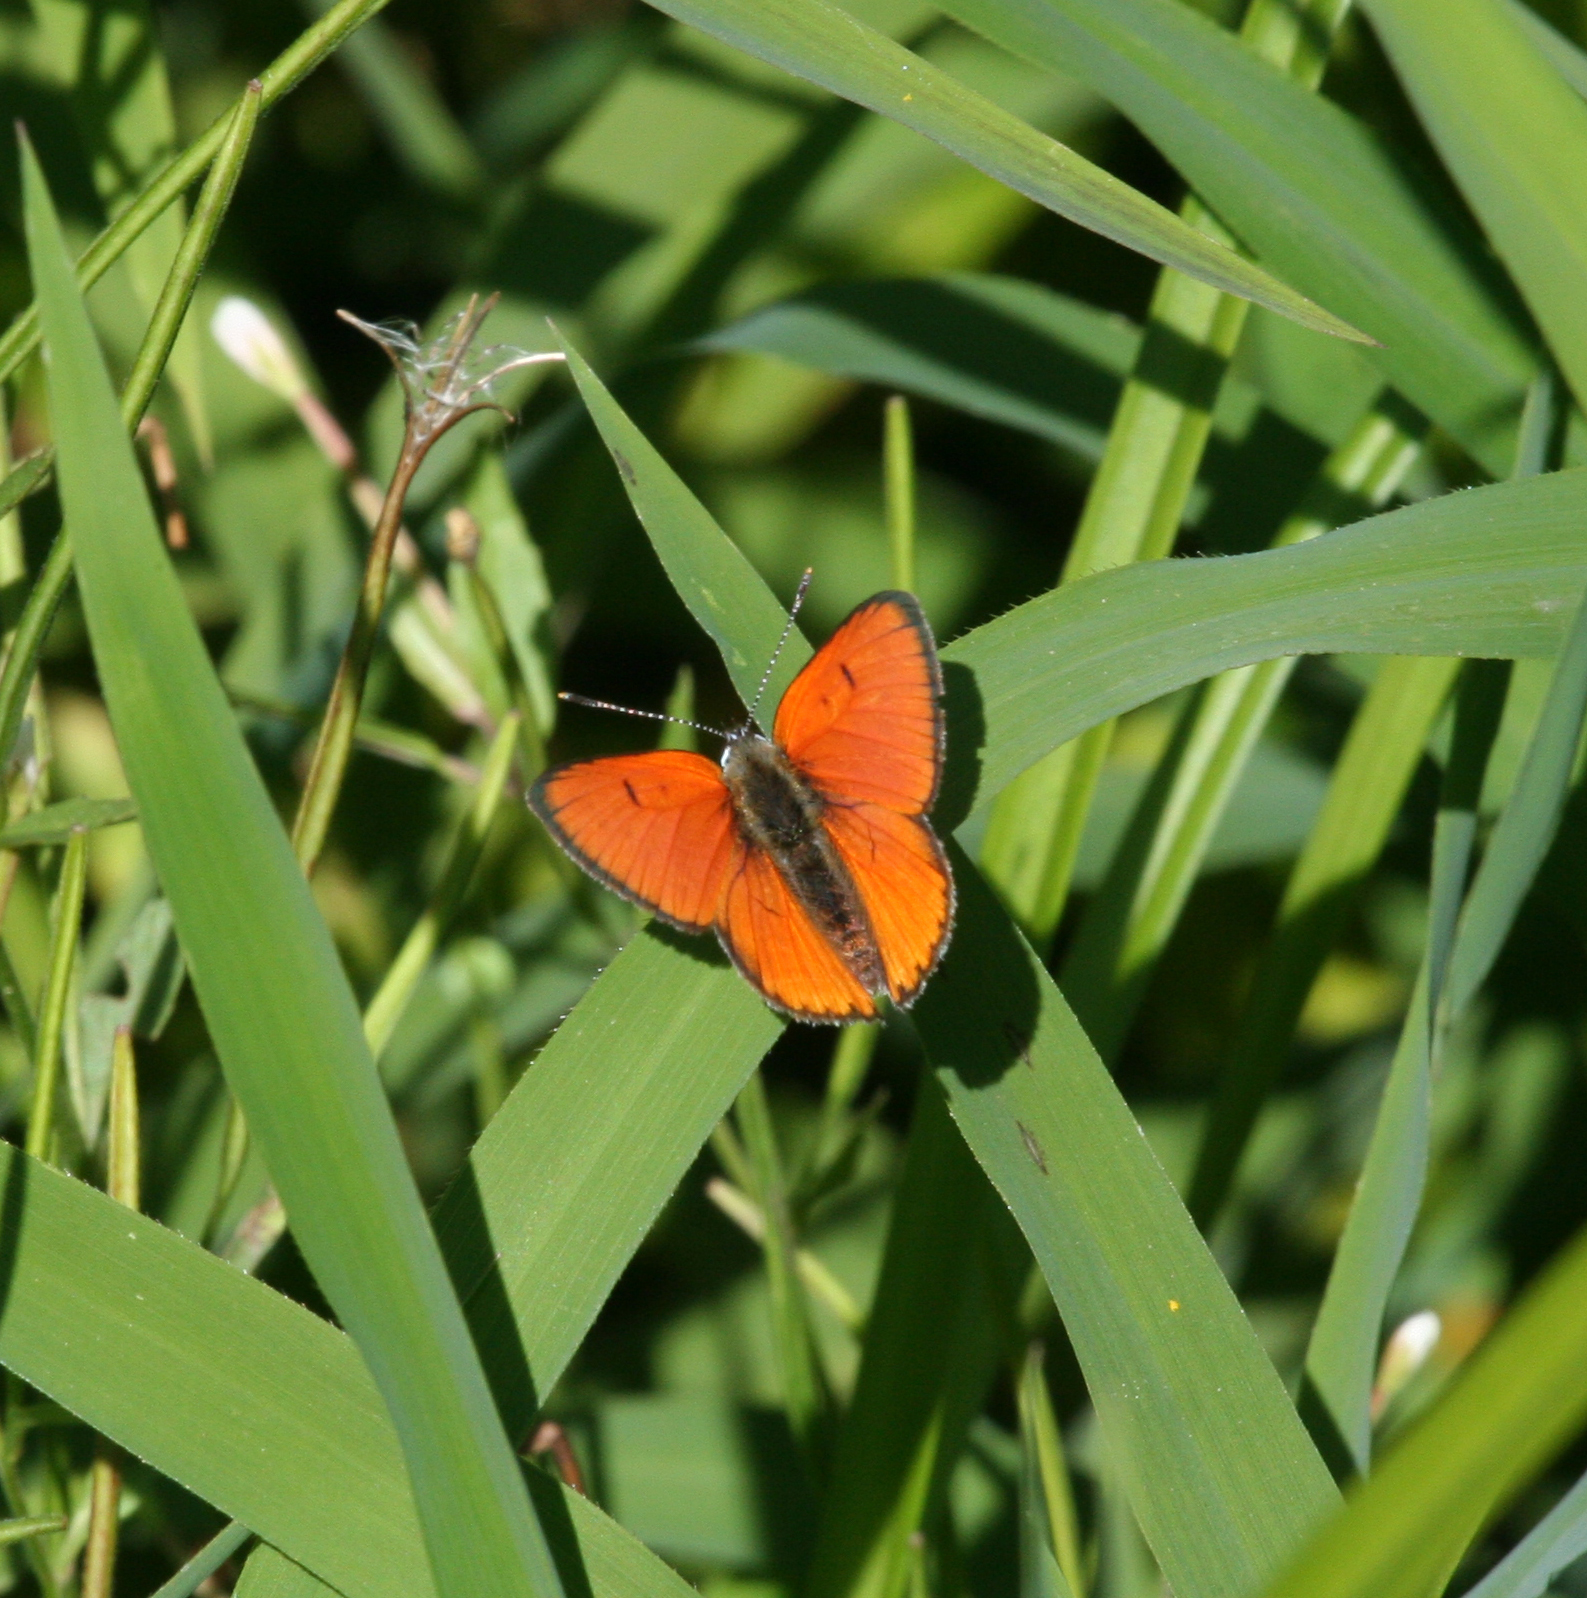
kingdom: Animalia
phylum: Arthropoda
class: Insecta
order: Lepidoptera
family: Lycaenidae
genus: Lycaena
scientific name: Lycaena dispar
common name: Large copper
